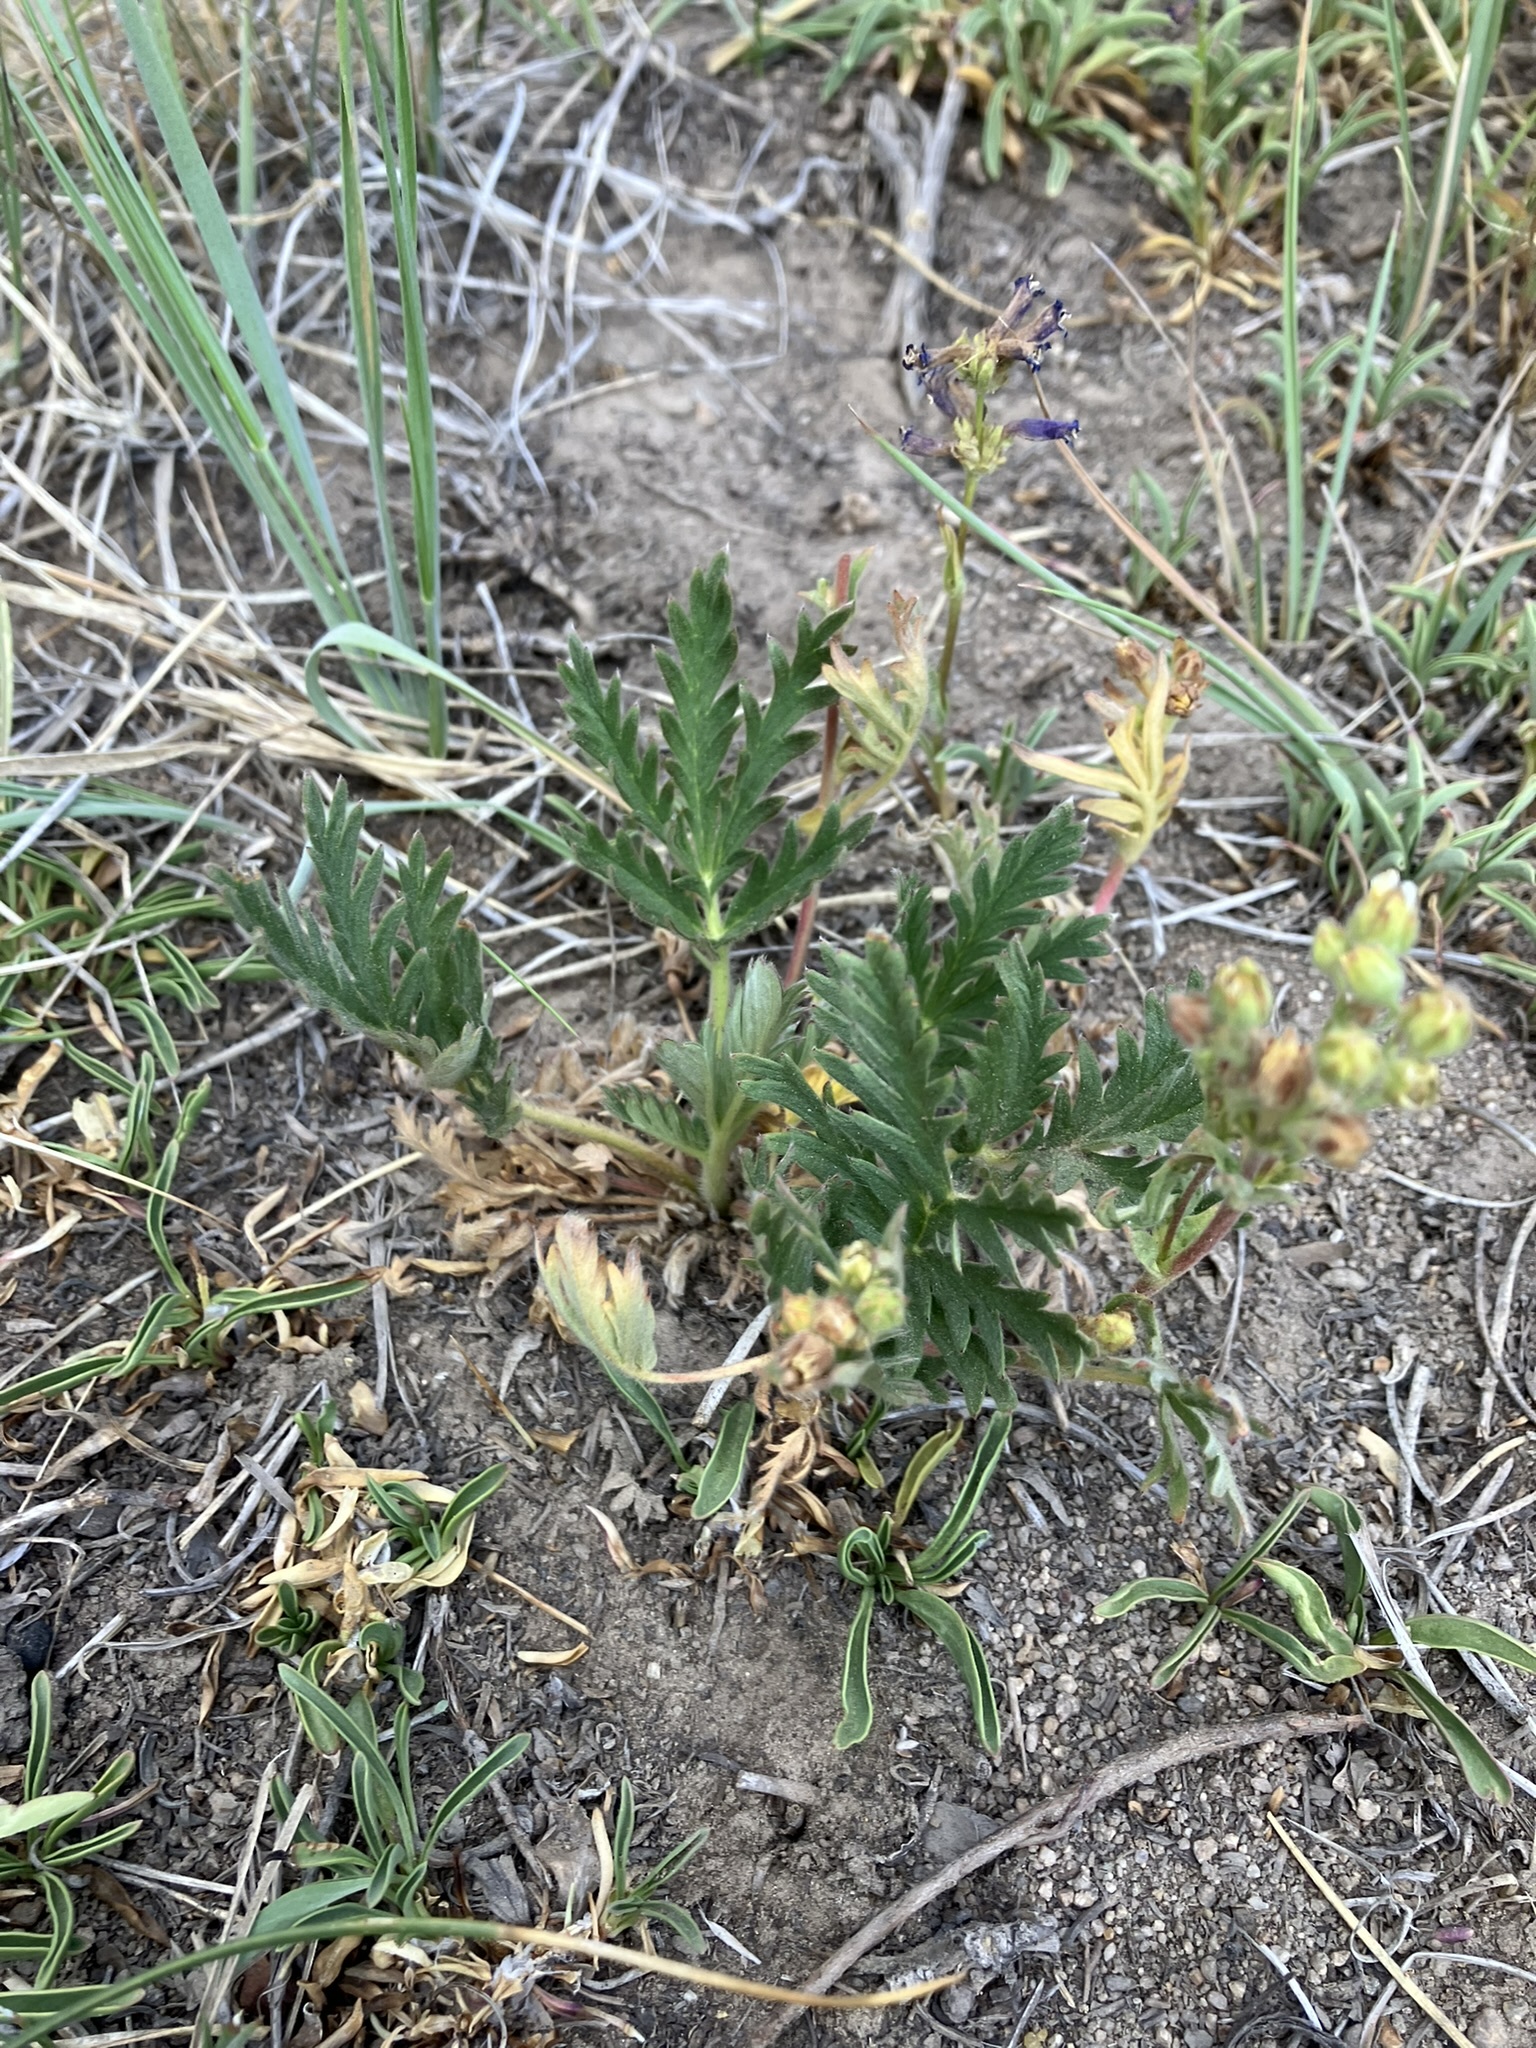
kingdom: Plantae
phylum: Tracheophyta
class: Magnoliopsida
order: Rosales
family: Rosaceae
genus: Potentilla
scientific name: Potentilla jepsonii
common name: Jepson's cinquefoil
